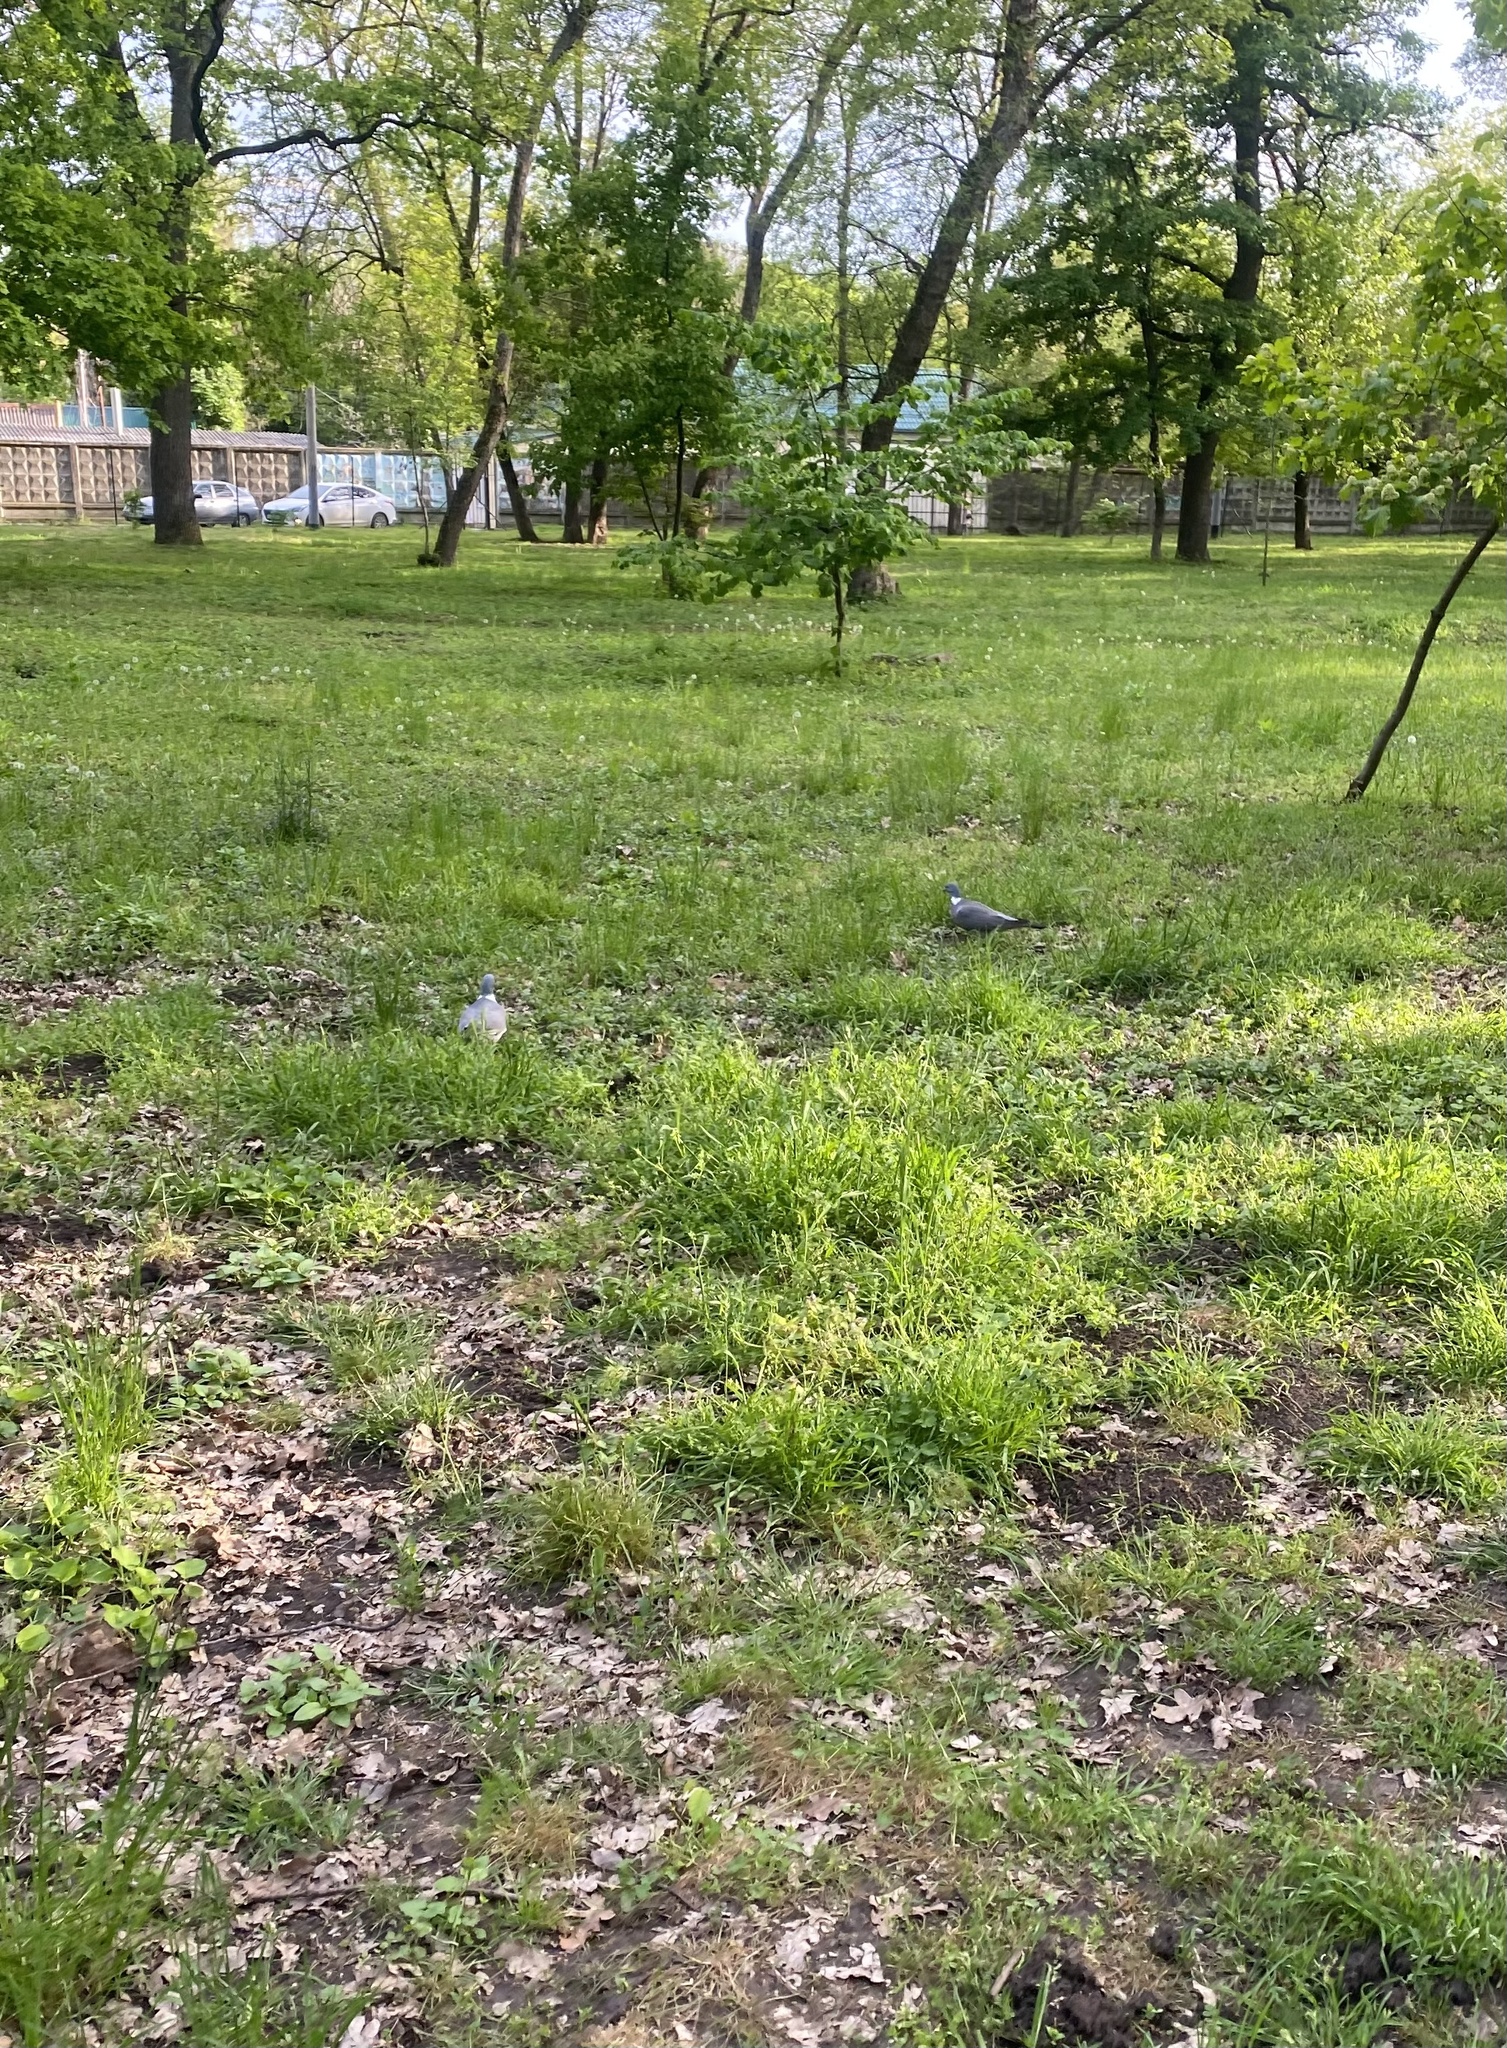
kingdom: Animalia
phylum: Chordata
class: Aves
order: Columbiformes
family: Columbidae
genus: Columba
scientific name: Columba palumbus
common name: Common wood pigeon
